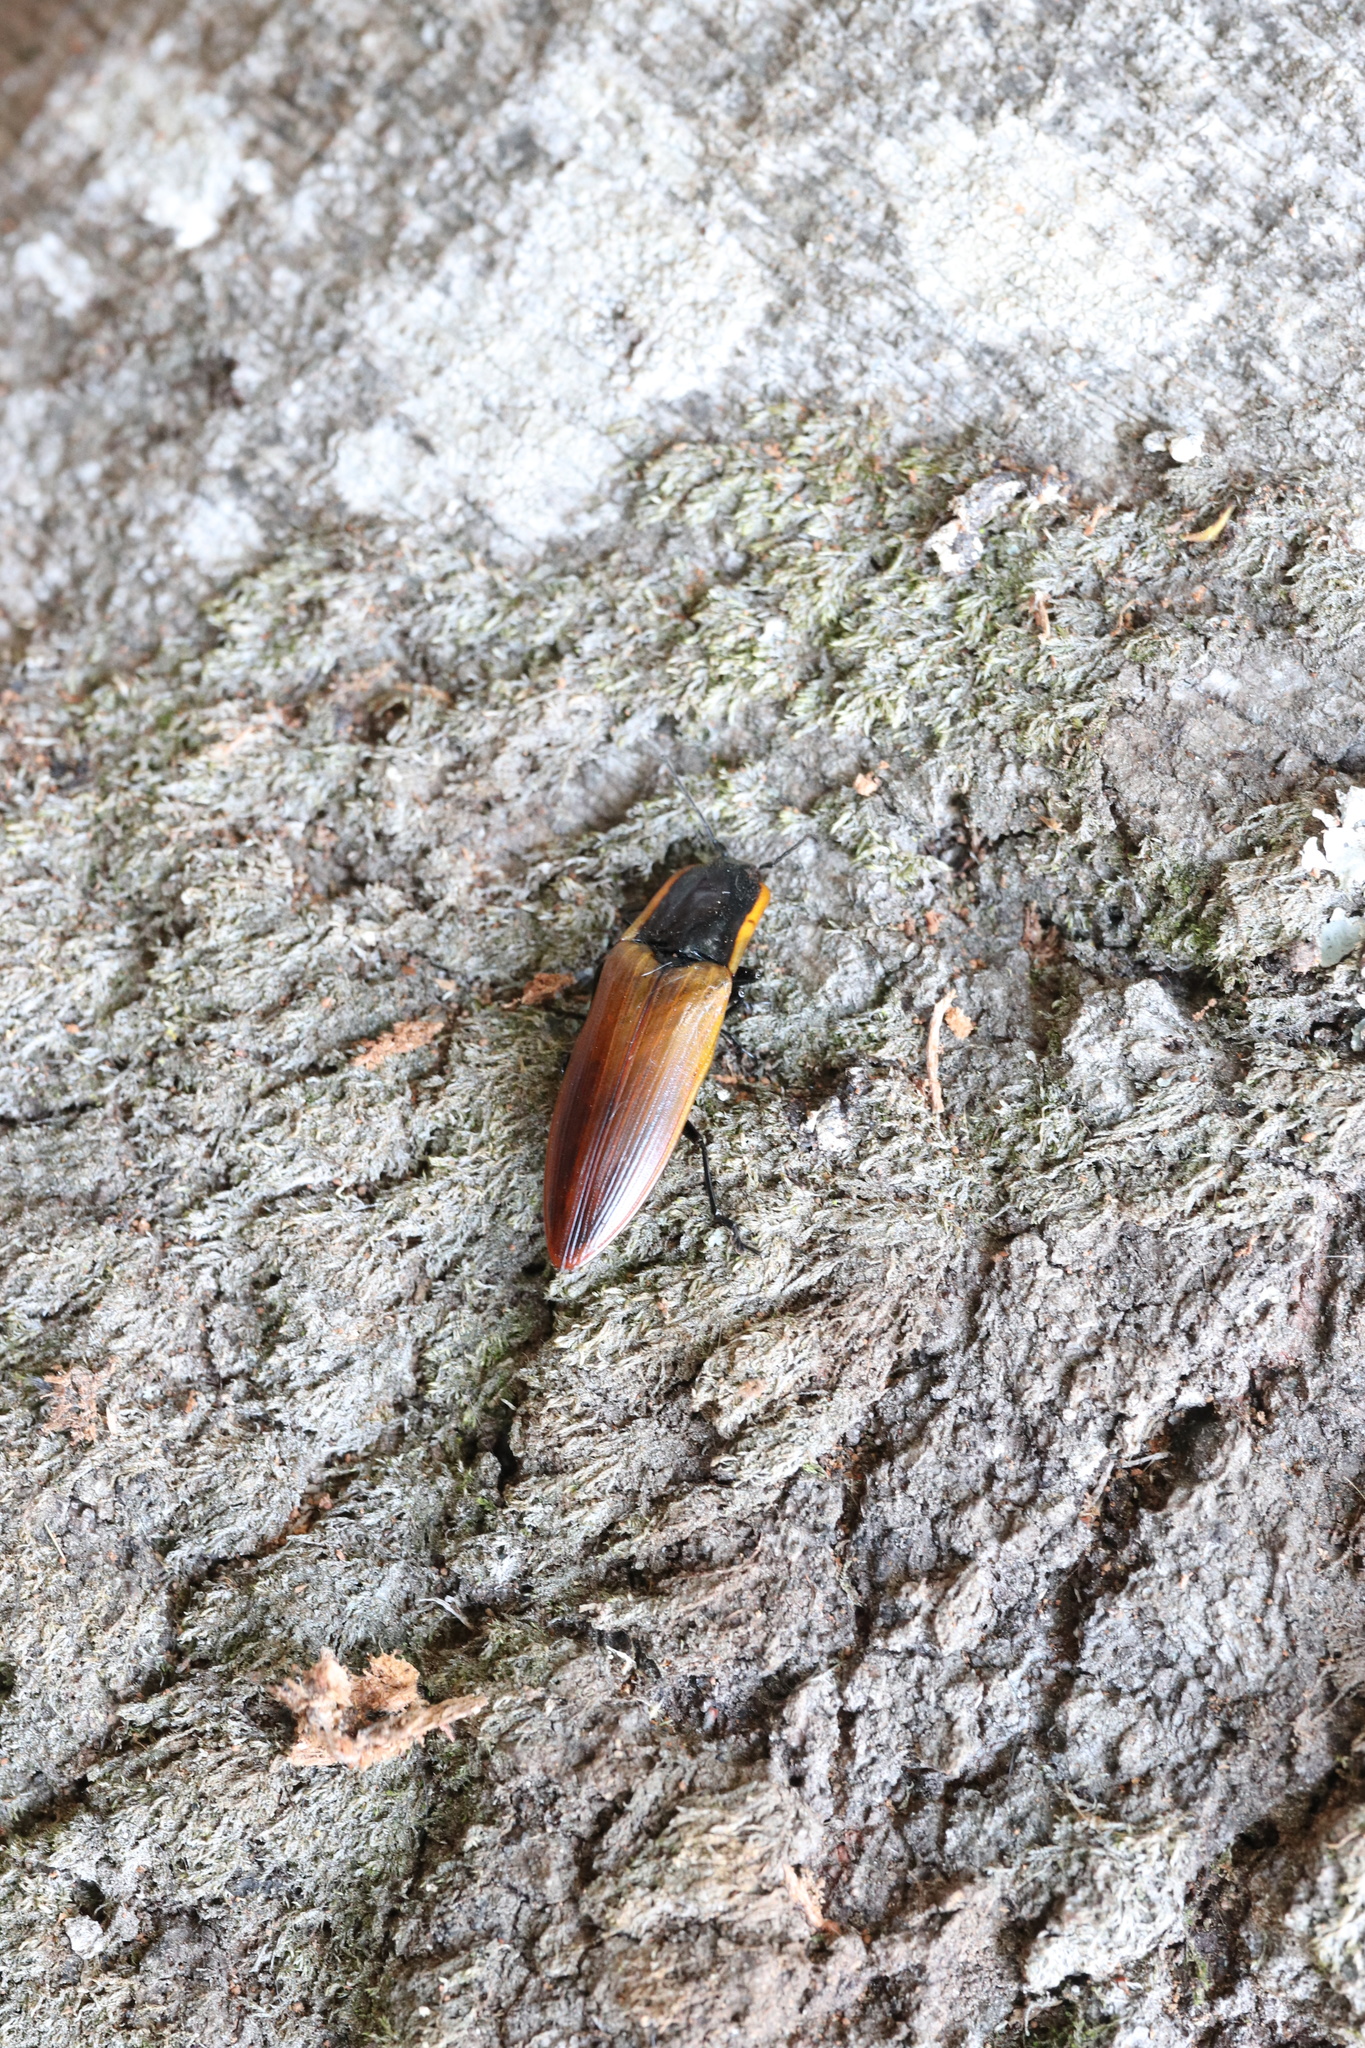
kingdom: Animalia
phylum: Arthropoda
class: Insecta
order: Coleoptera
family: Elateridae
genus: Semiotus
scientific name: Semiotus
